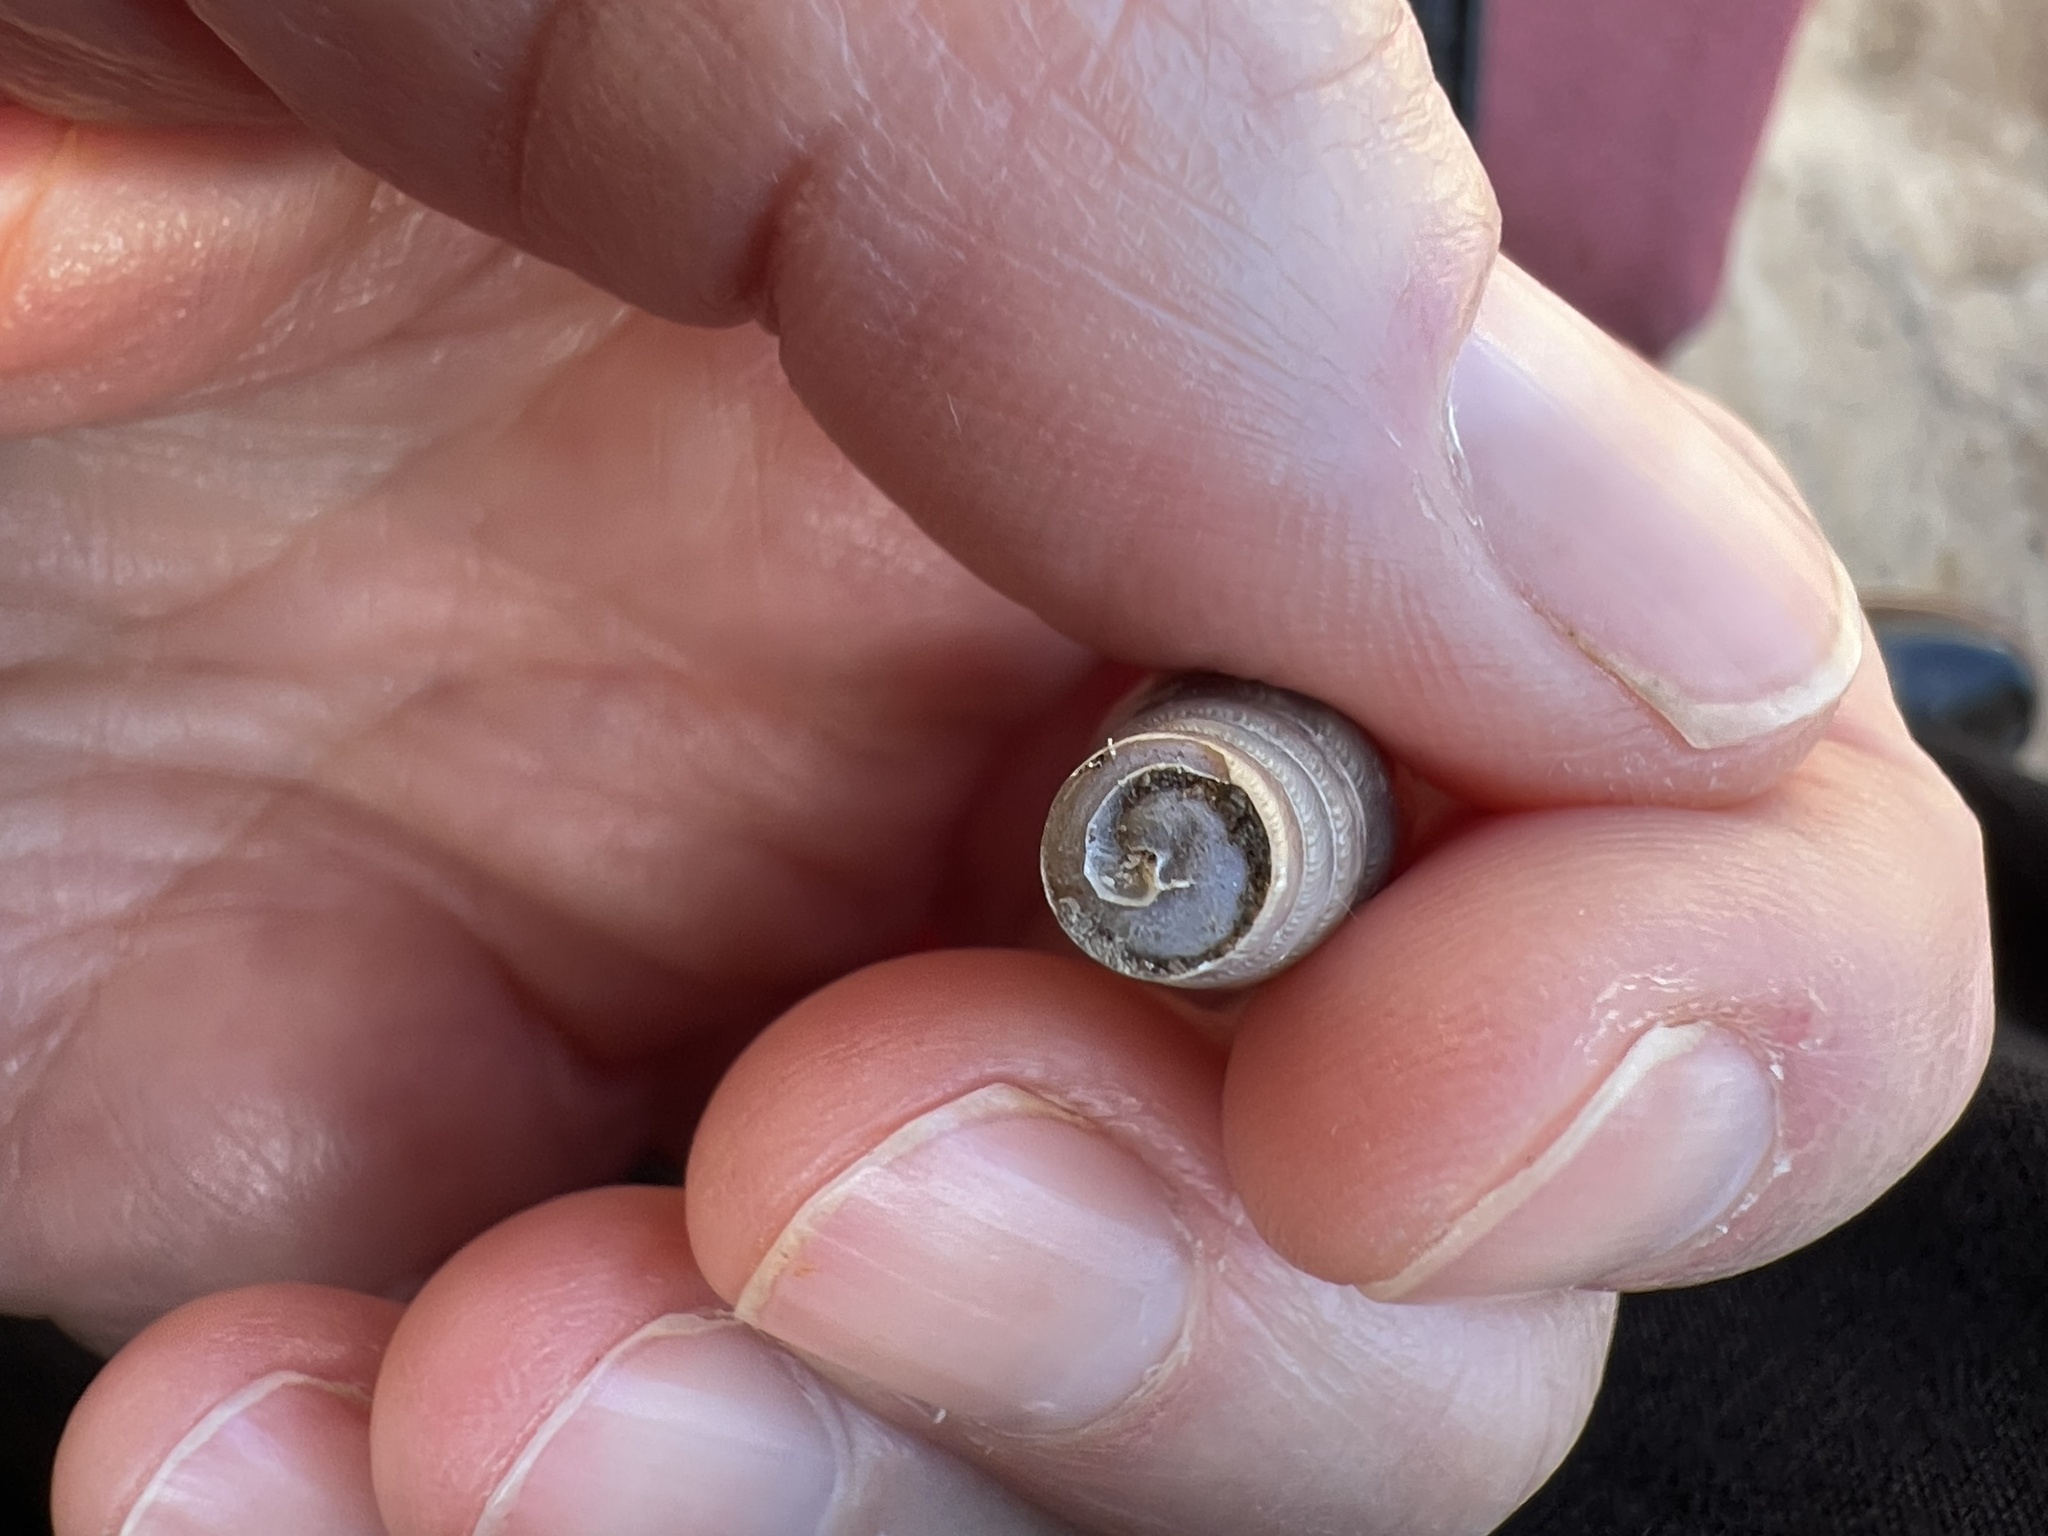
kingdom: Animalia
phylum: Mollusca
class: Gastropoda
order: Stylommatophora
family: Achatinidae
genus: Rumina
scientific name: Rumina decollata
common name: Decollate snail
